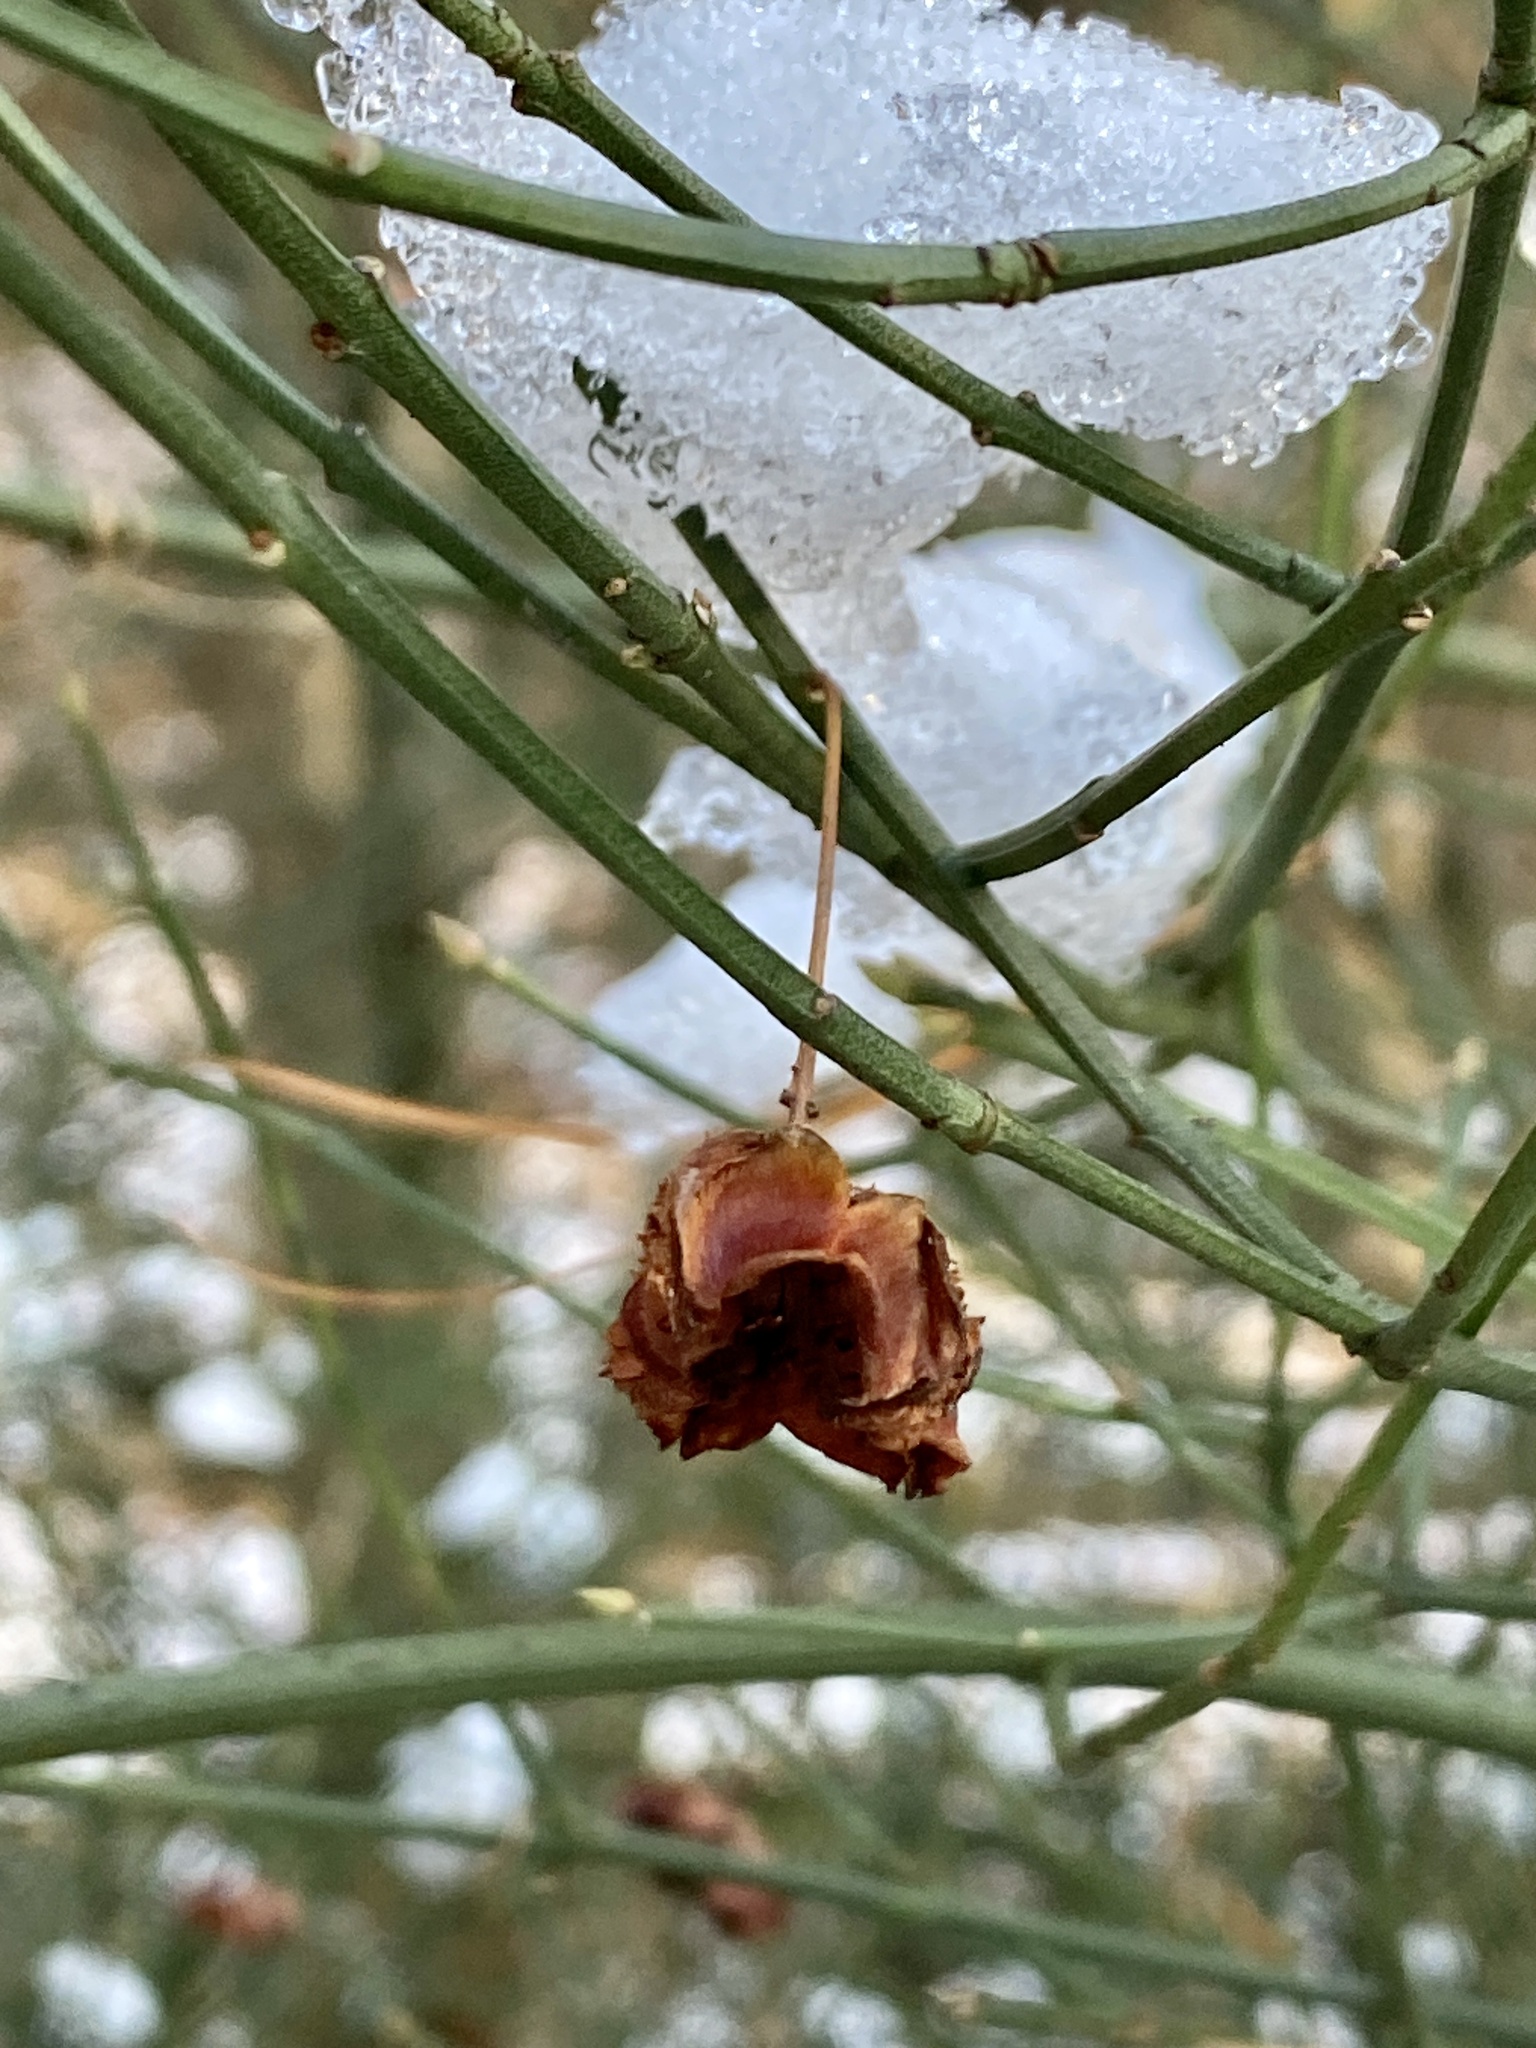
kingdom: Plantae
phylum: Tracheophyta
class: Magnoliopsida
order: Celastrales
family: Celastraceae
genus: Euonymus
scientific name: Euonymus americanus
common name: Bursting-heart
